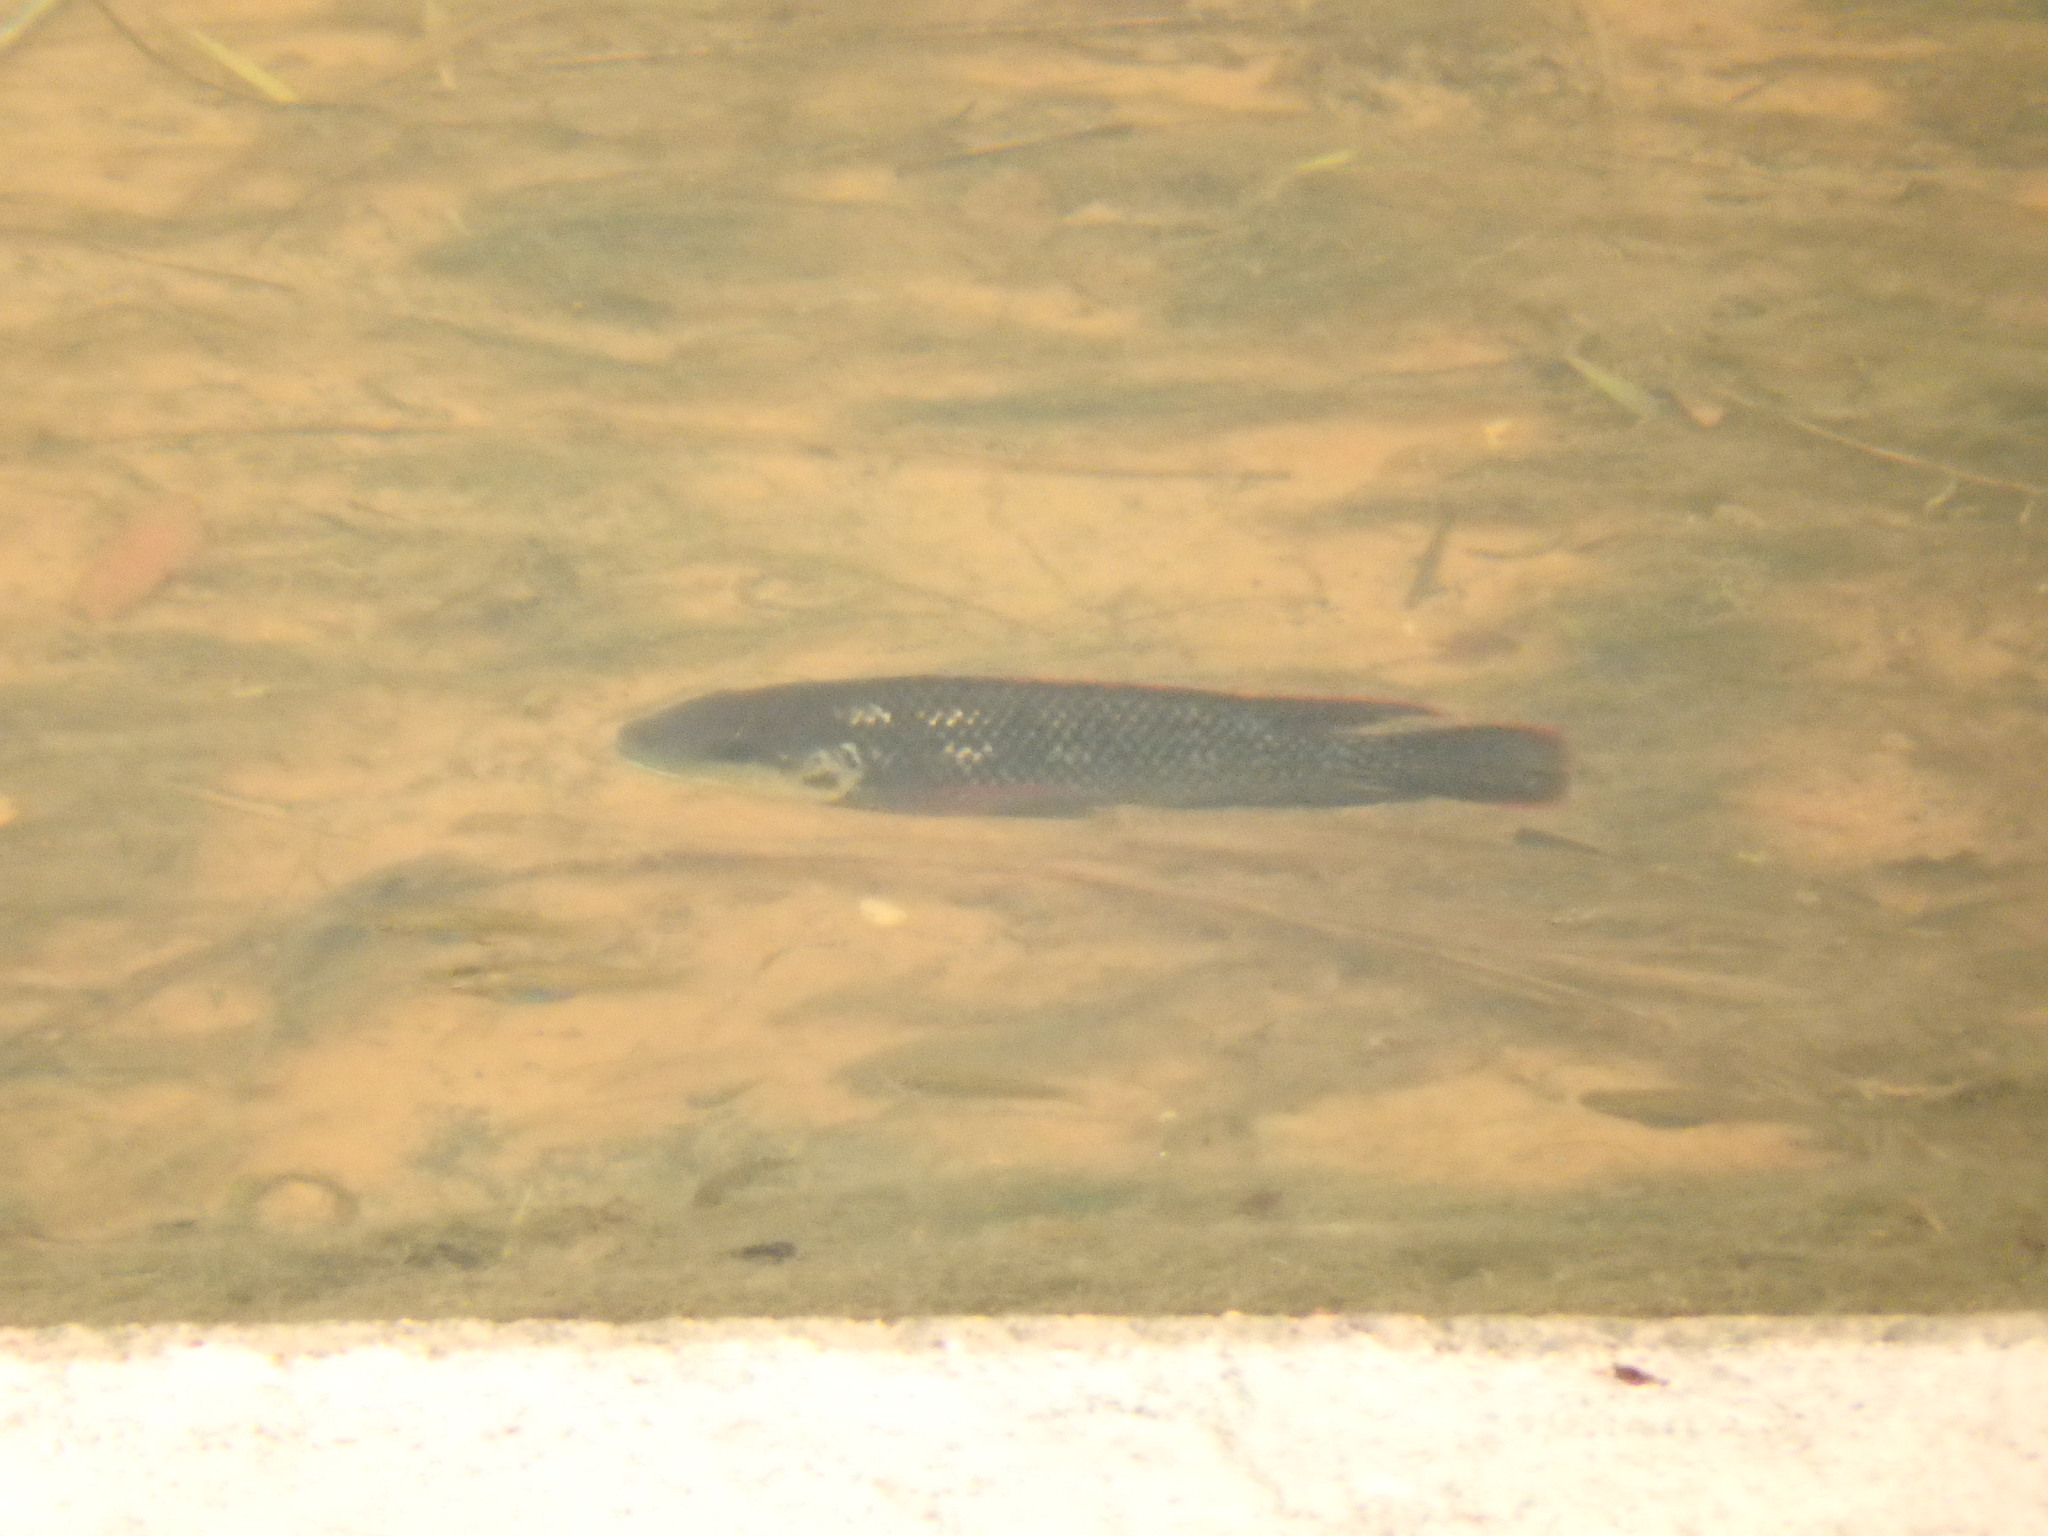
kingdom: Animalia
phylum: Chordata
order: Perciformes
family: Cichlidae
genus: Oreochromis
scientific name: Oreochromis mossambicus
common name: Mozambique tilapia
